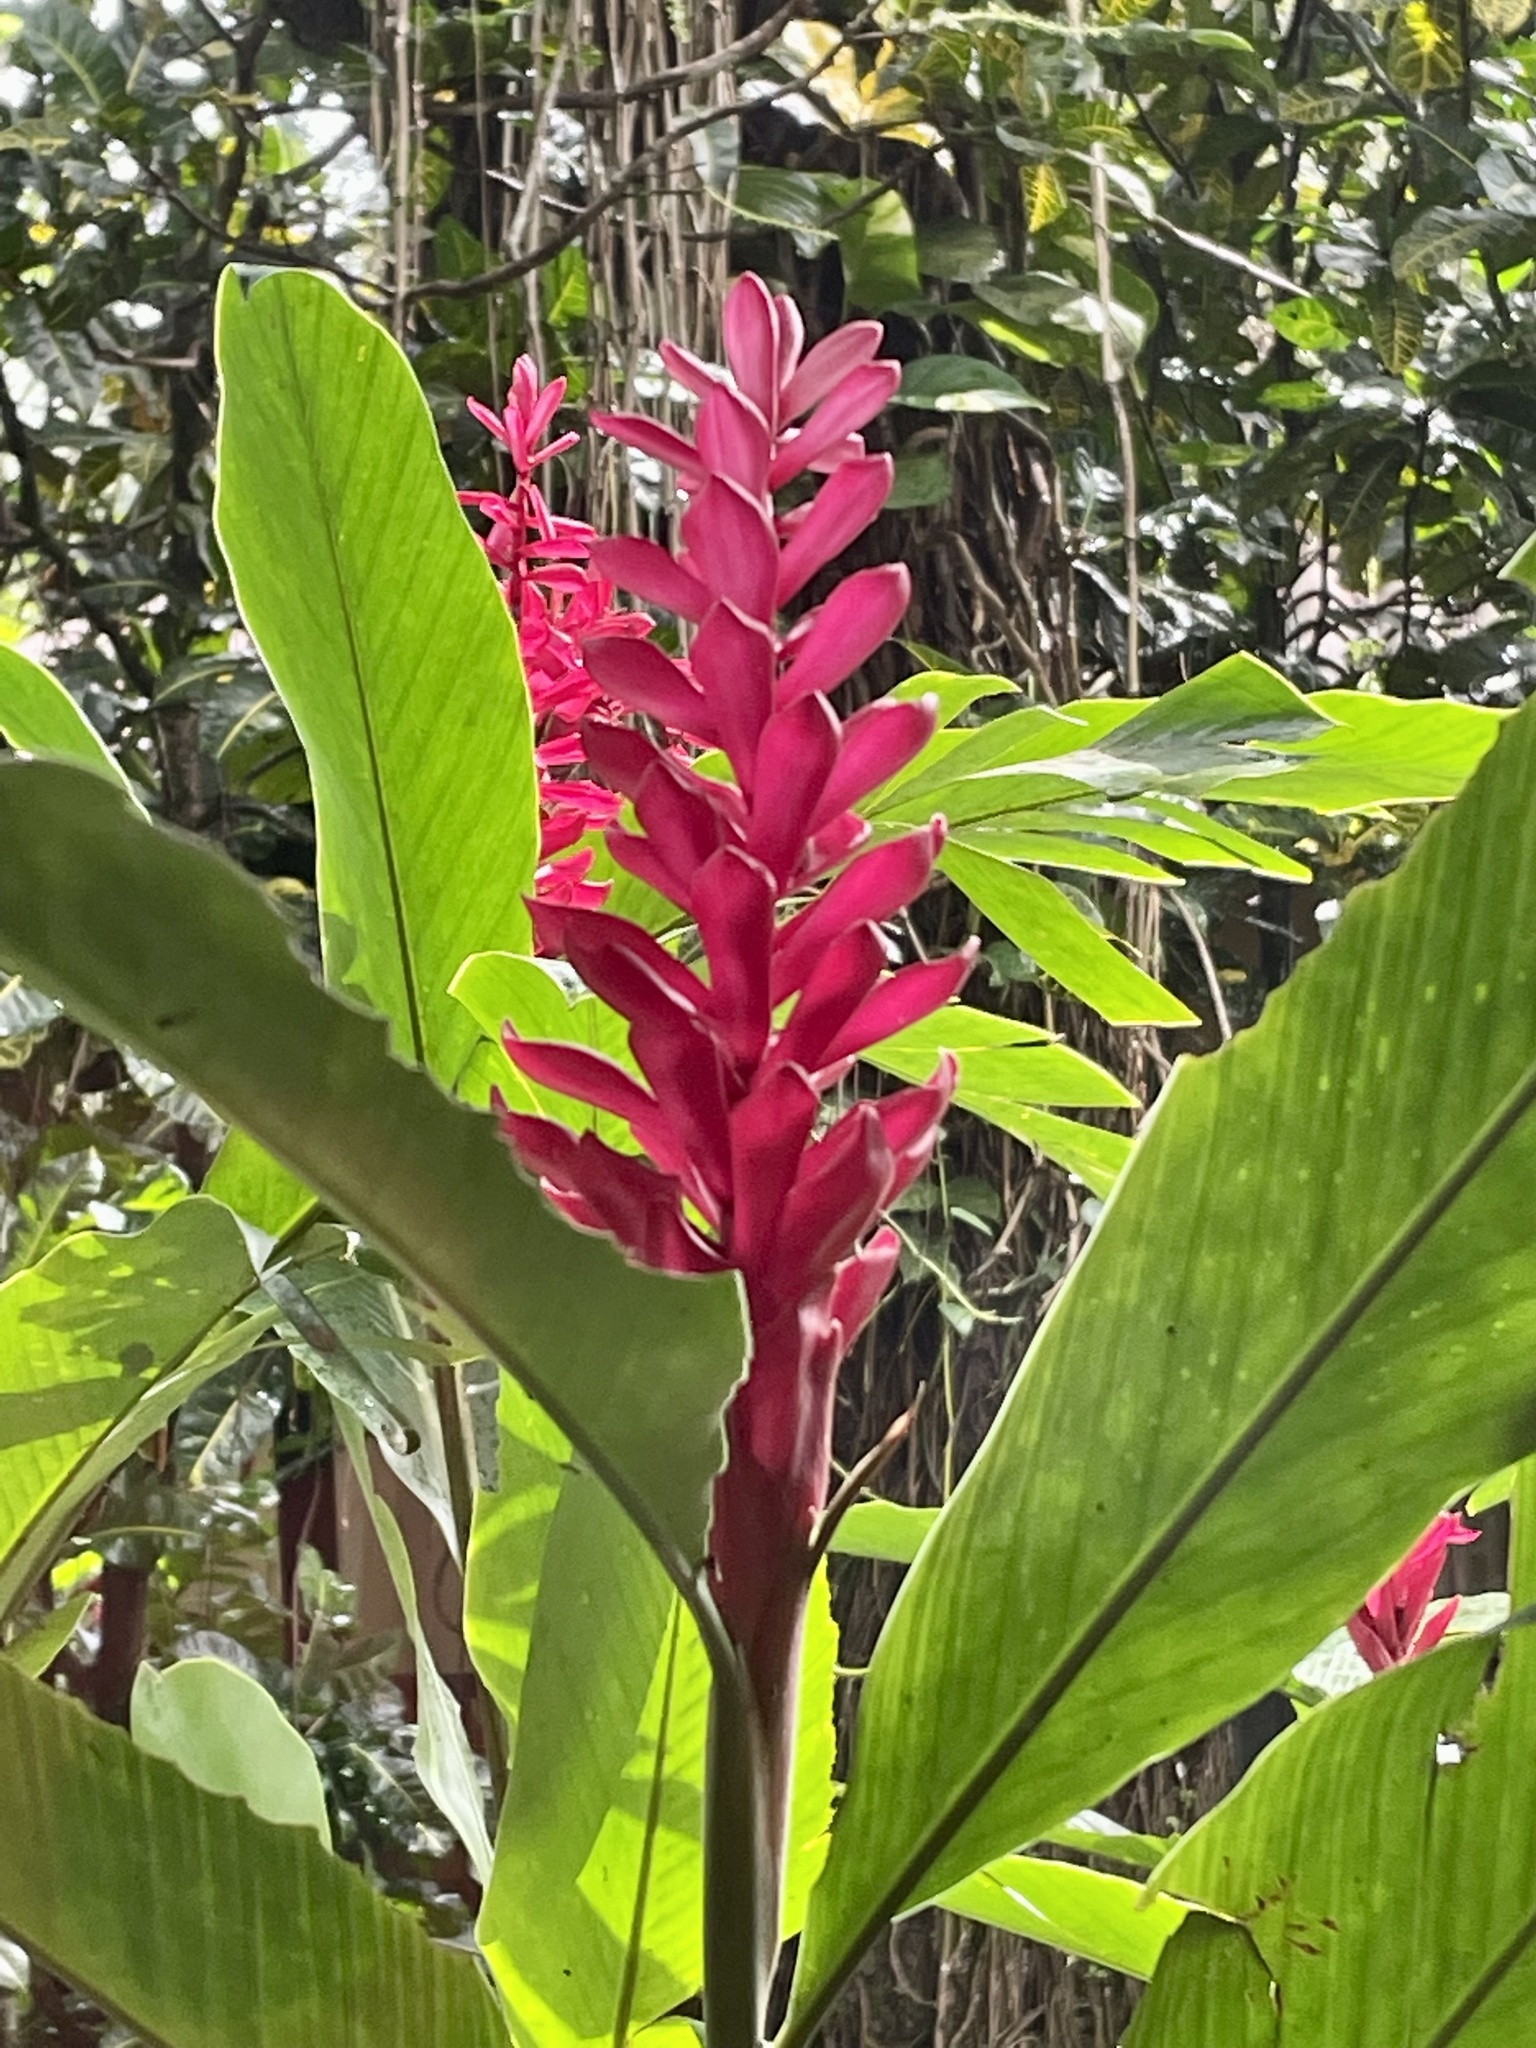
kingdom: Plantae
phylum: Tracheophyta
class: Liliopsida
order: Zingiberales
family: Zingiberaceae
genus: Alpinia
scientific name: Alpinia purpurata
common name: Red ginger
